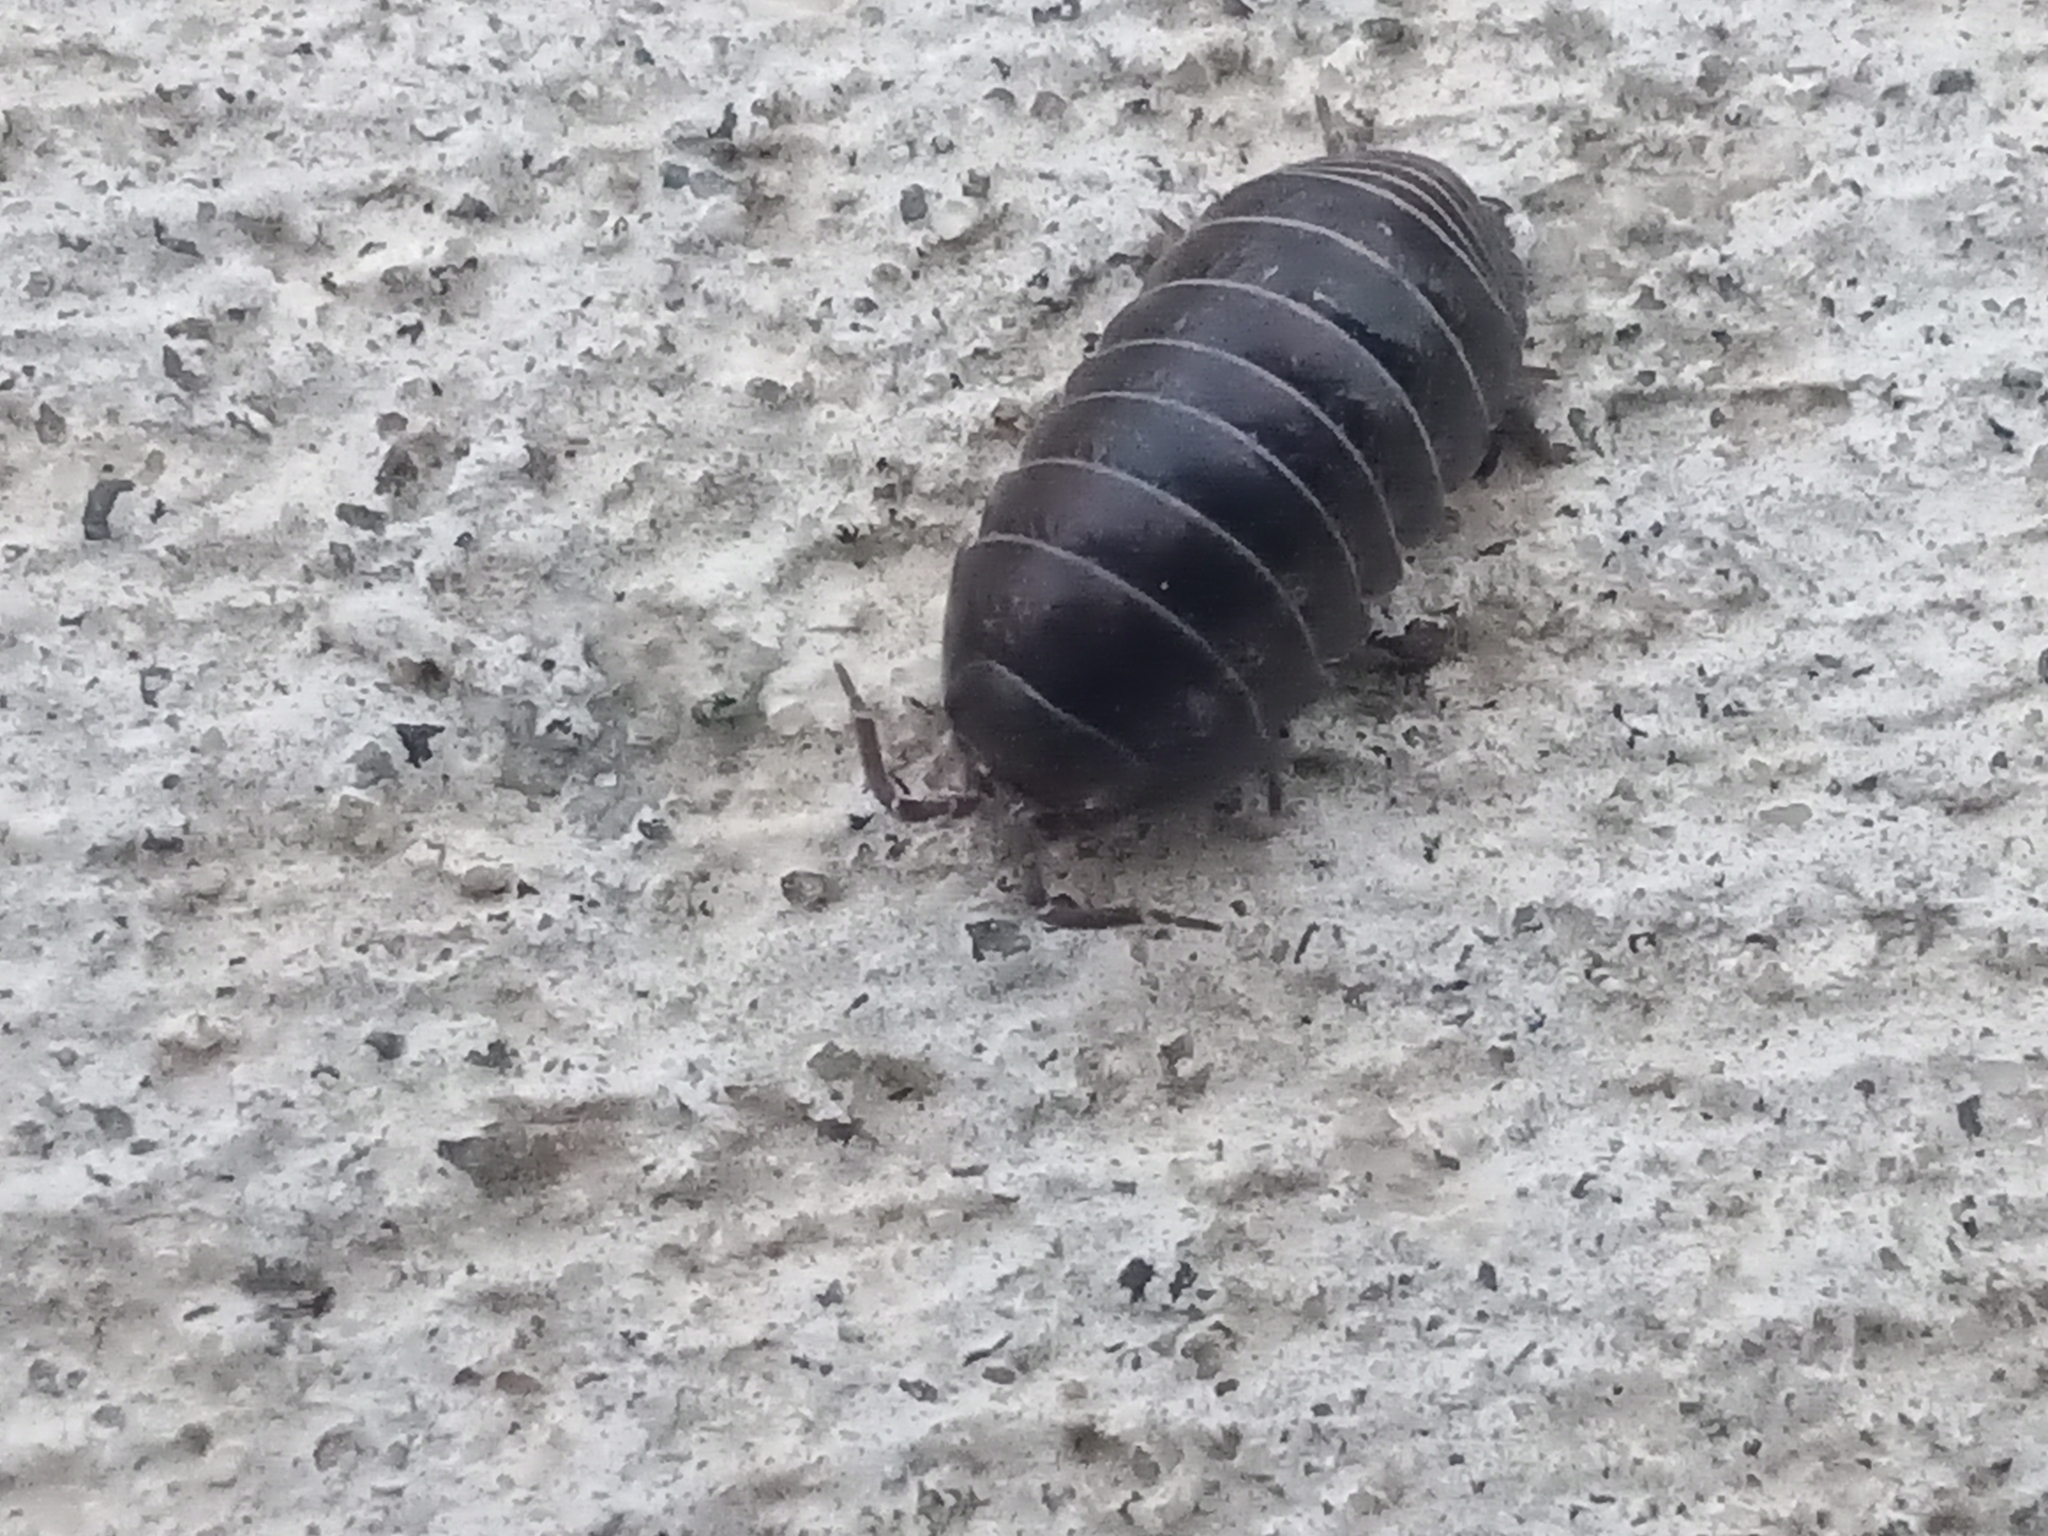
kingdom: Animalia
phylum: Arthropoda
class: Malacostraca
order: Isopoda
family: Armadillidiidae
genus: Armadillidium
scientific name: Armadillidium vulgare
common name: Common pill woodlouse
